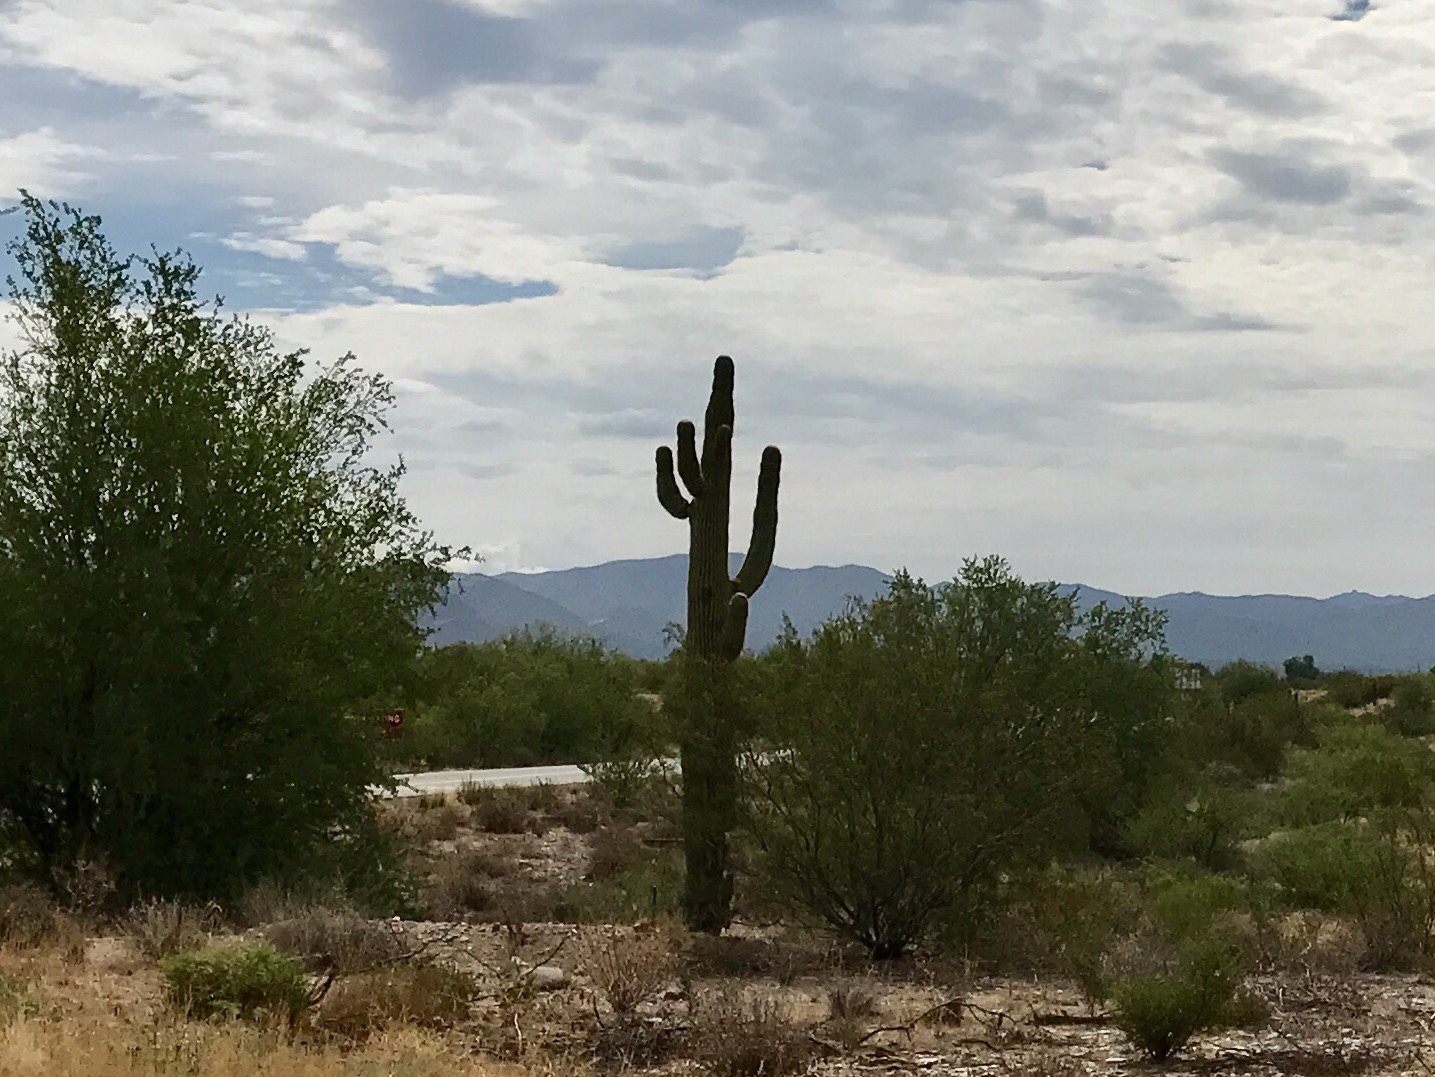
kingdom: Plantae
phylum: Tracheophyta
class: Magnoliopsida
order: Caryophyllales
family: Cactaceae
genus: Carnegiea
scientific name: Carnegiea gigantea
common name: Saguaro
